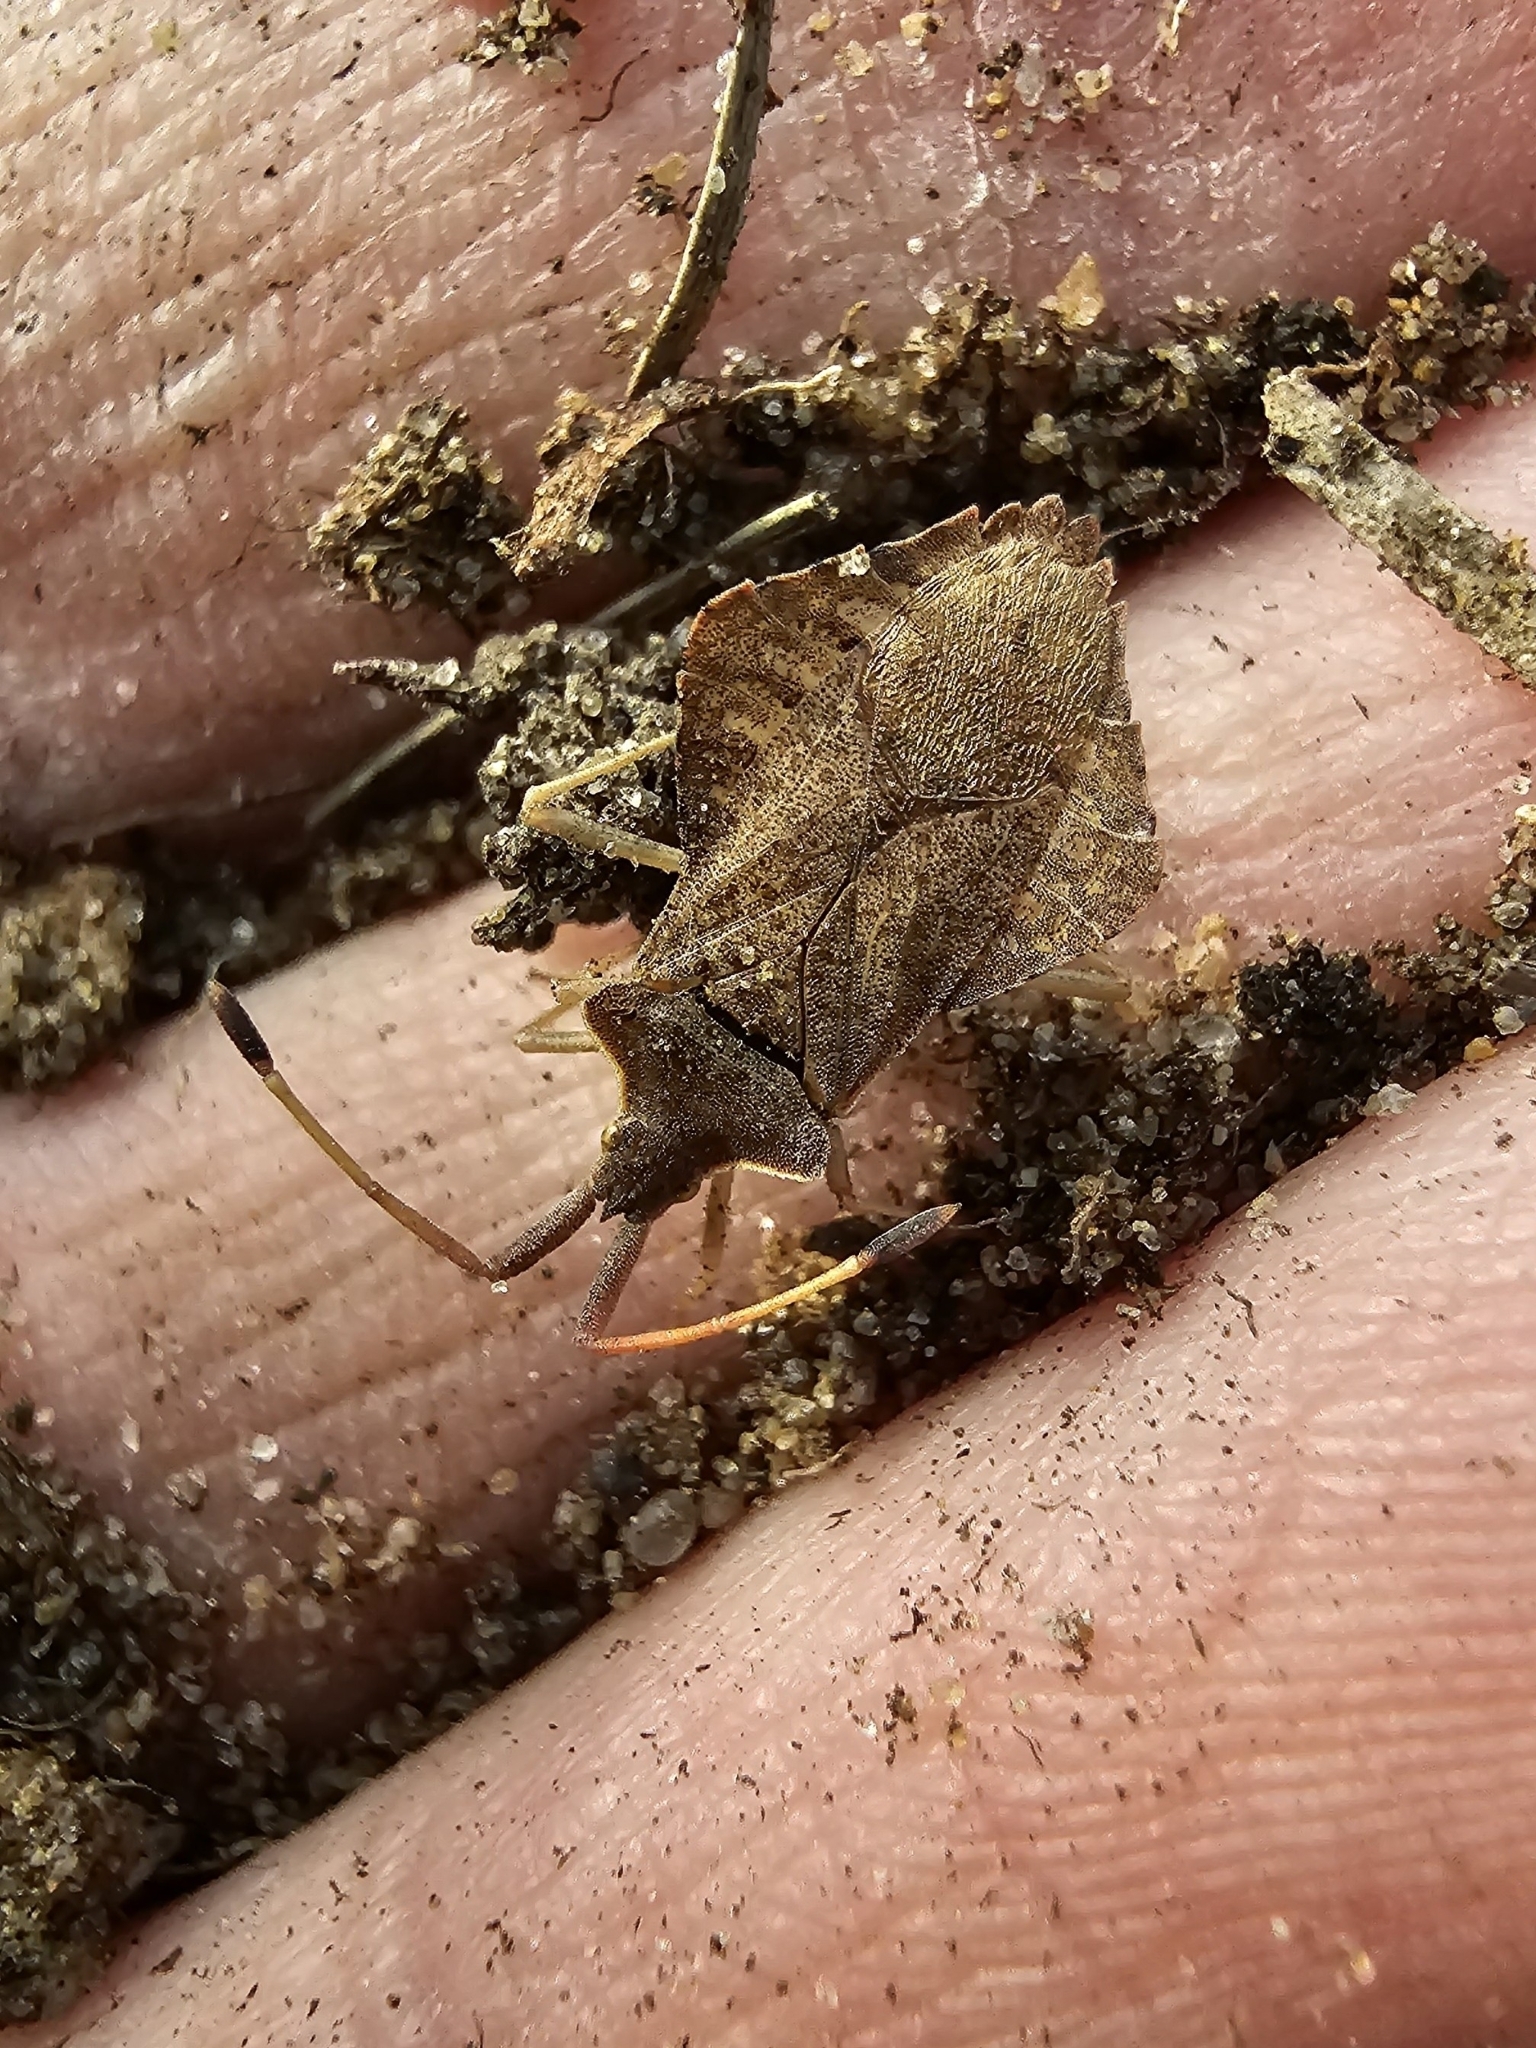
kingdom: Animalia
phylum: Arthropoda
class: Insecta
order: Hemiptera
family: Coreidae
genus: Syromastus
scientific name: Syromastus rhombeus
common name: Rhombic leatherbug
